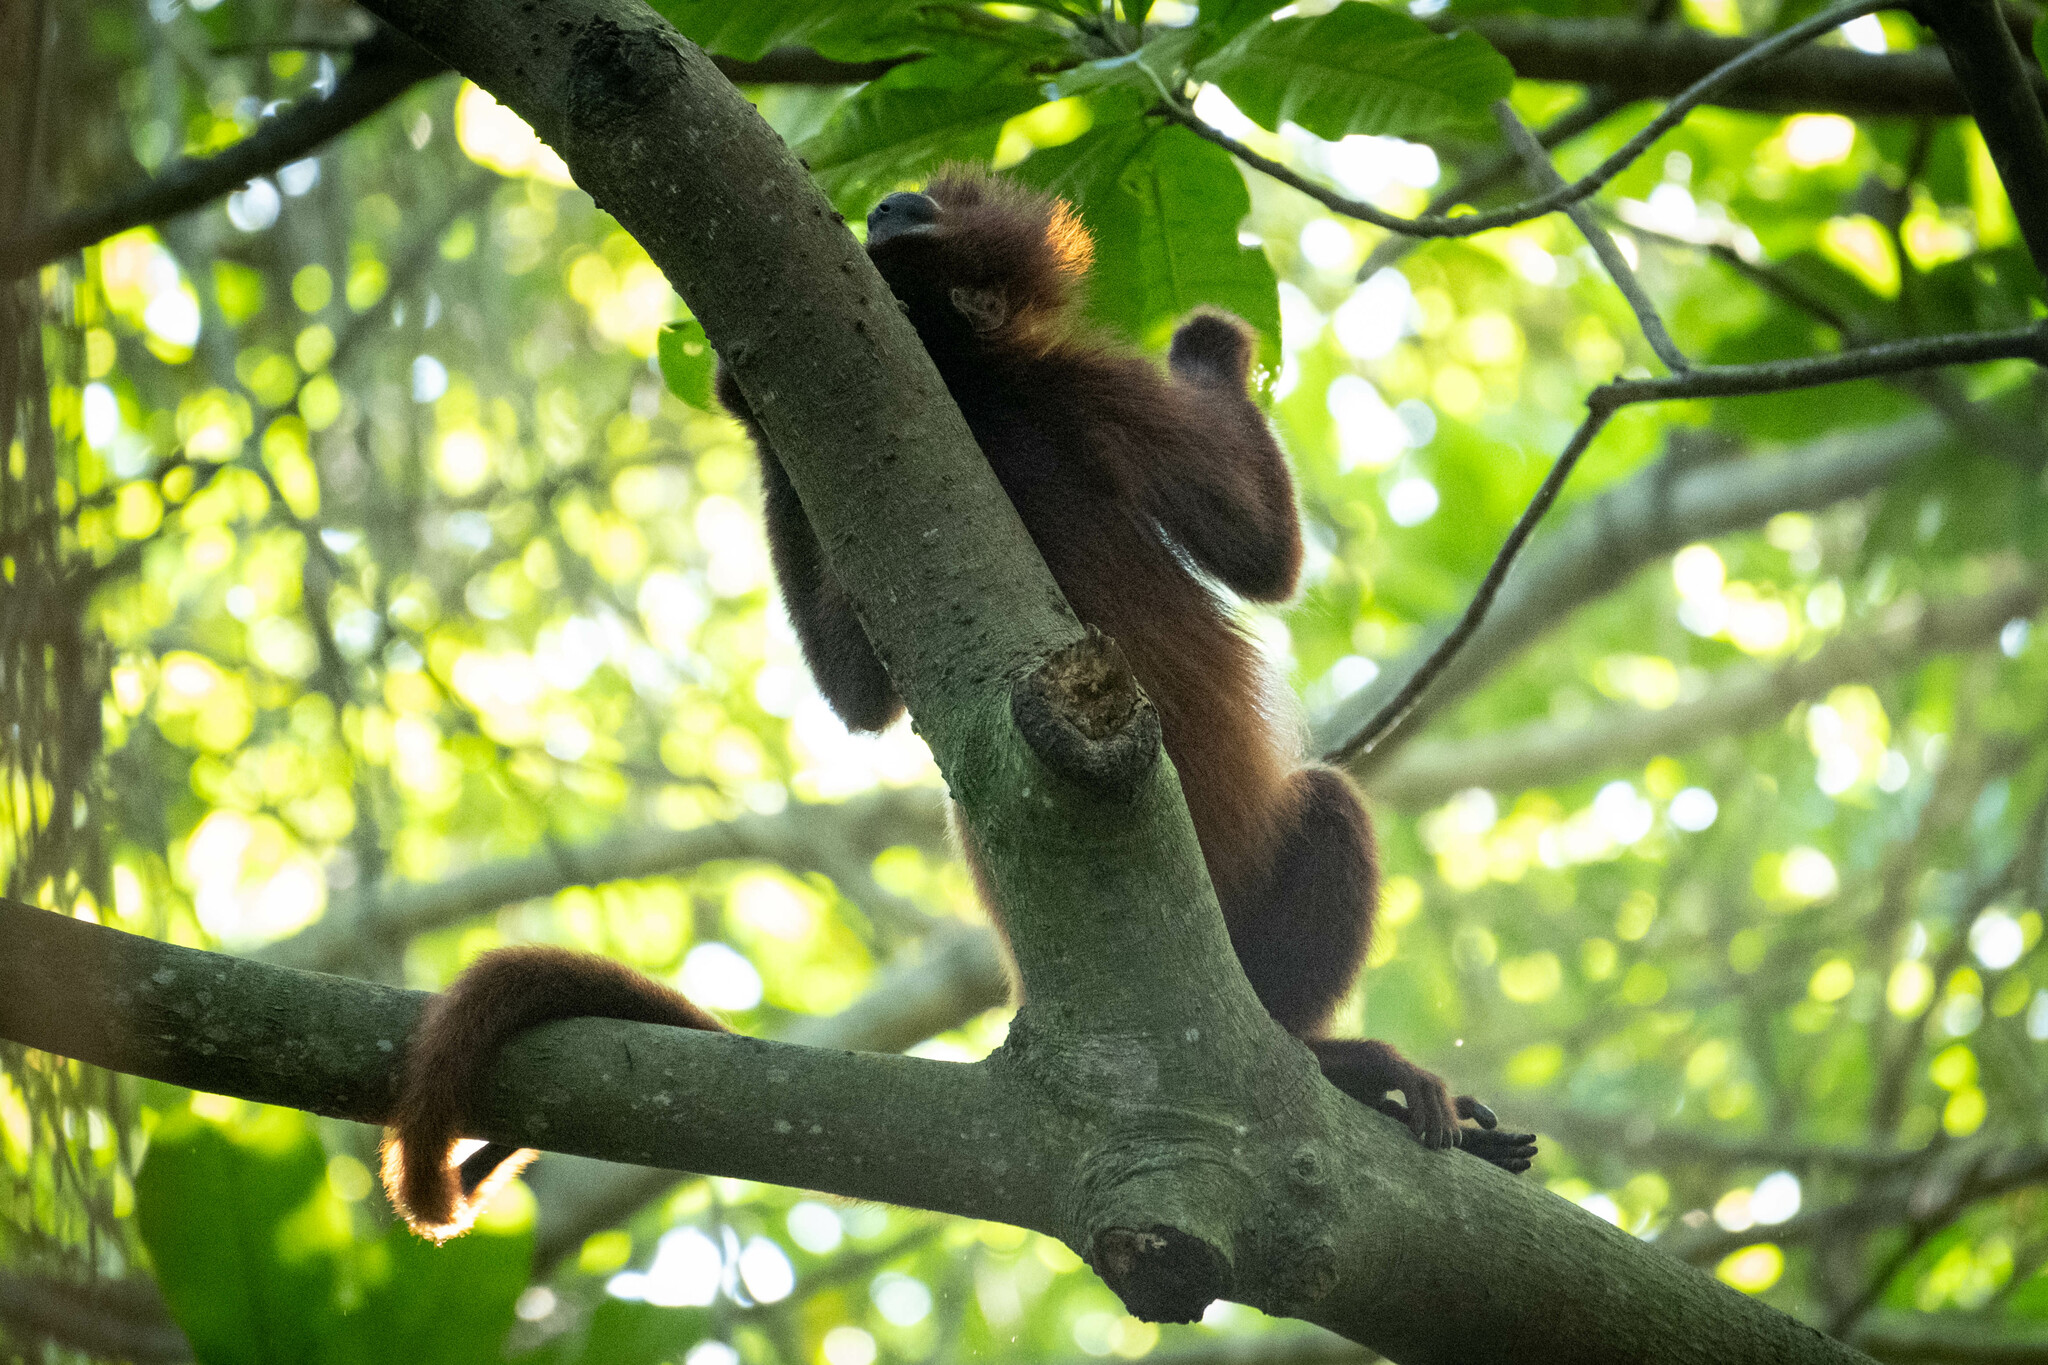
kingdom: Animalia
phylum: Chordata
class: Mammalia
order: Primates
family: Atelidae
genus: Alouatta
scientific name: Alouatta seniculus
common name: Venezuelan red howler
